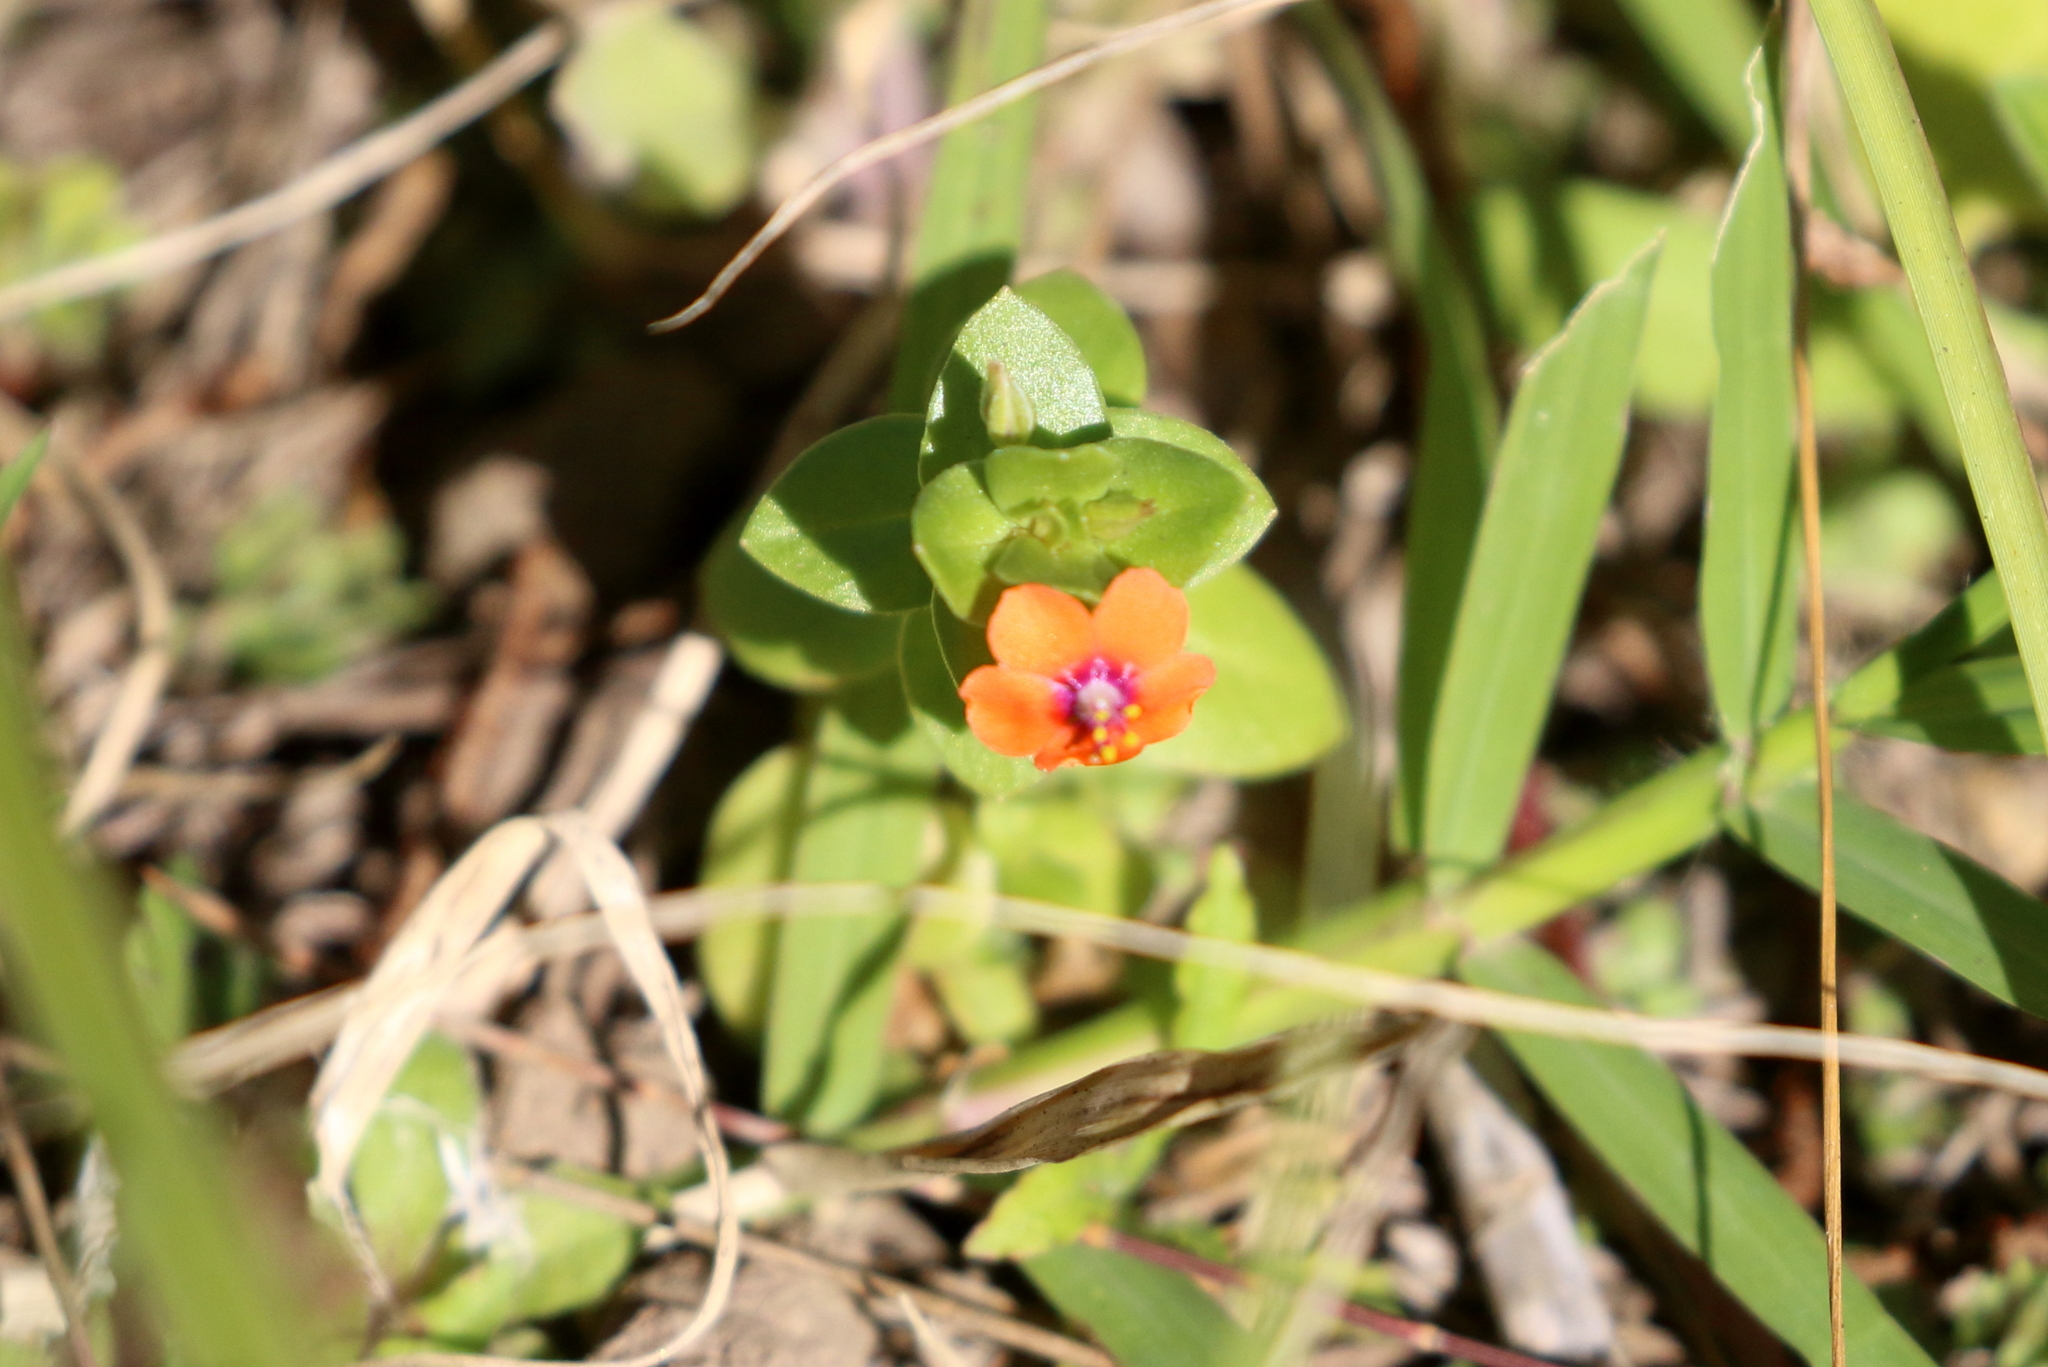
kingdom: Plantae
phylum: Tracheophyta
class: Magnoliopsida
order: Ericales
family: Primulaceae
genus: Lysimachia
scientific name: Lysimachia arvensis
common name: Scarlet pimpernel
